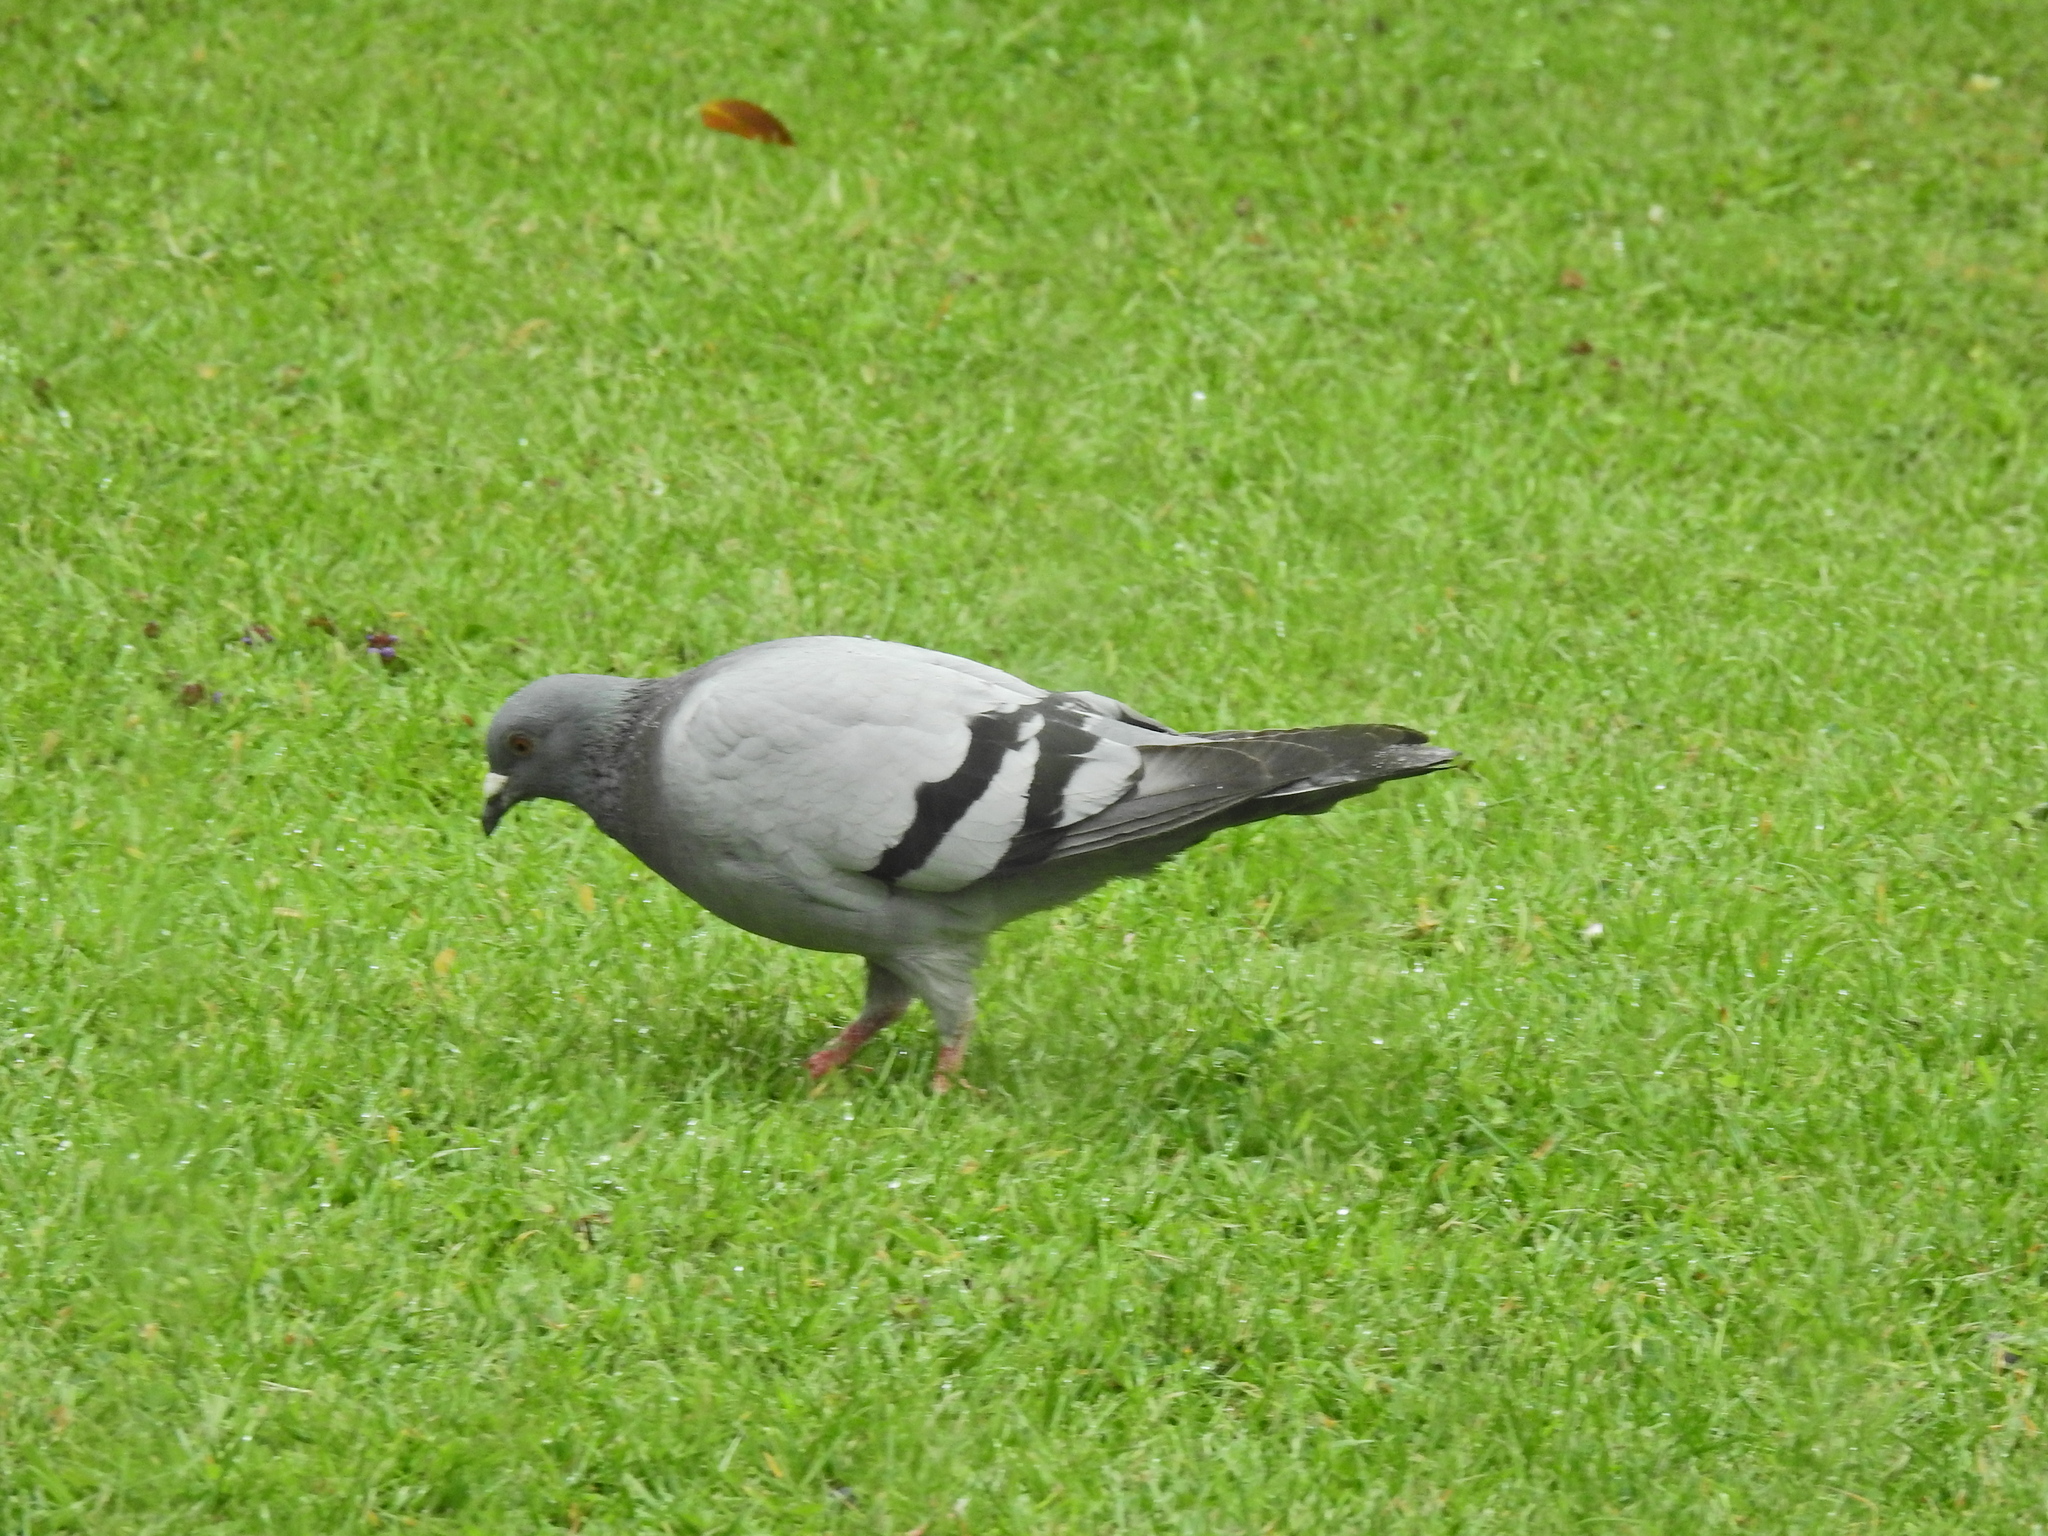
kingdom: Animalia
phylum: Chordata
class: Aves
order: Columbiformes
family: Columbidae
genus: Columba
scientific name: Columba livia
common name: Rock pigeon
